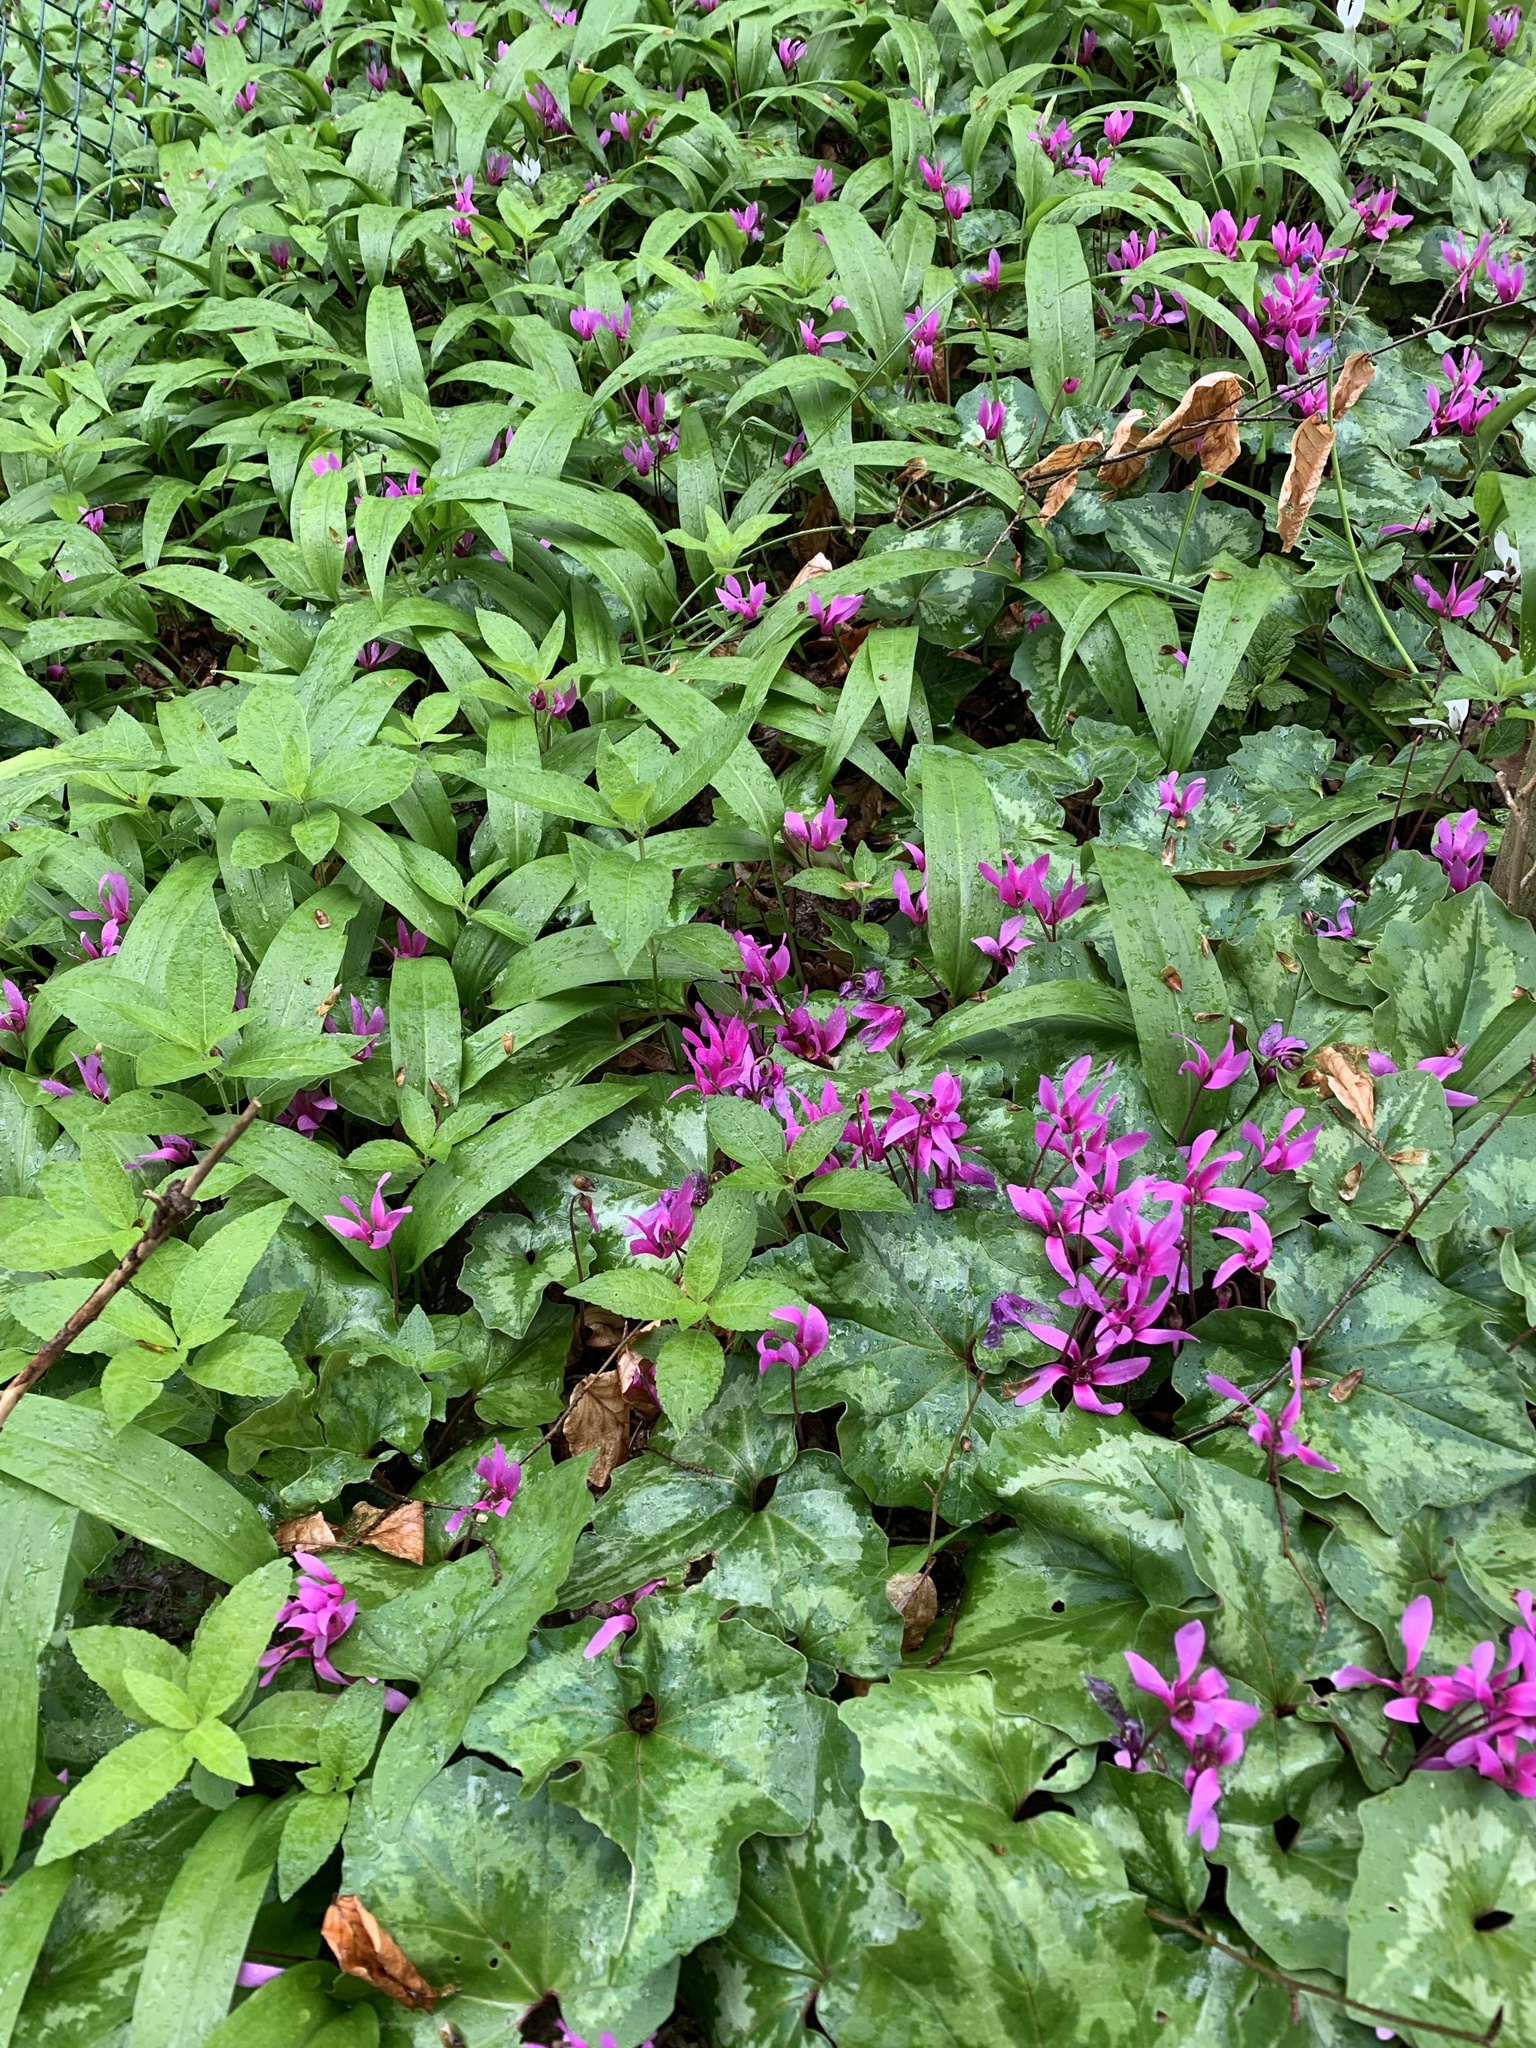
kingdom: Plantae
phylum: Tracheophyta
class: Magnoliopsida
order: Ericales
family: Primulaceae
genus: Cyclamen
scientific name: Cyclamen repandum
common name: Spring sowbread
